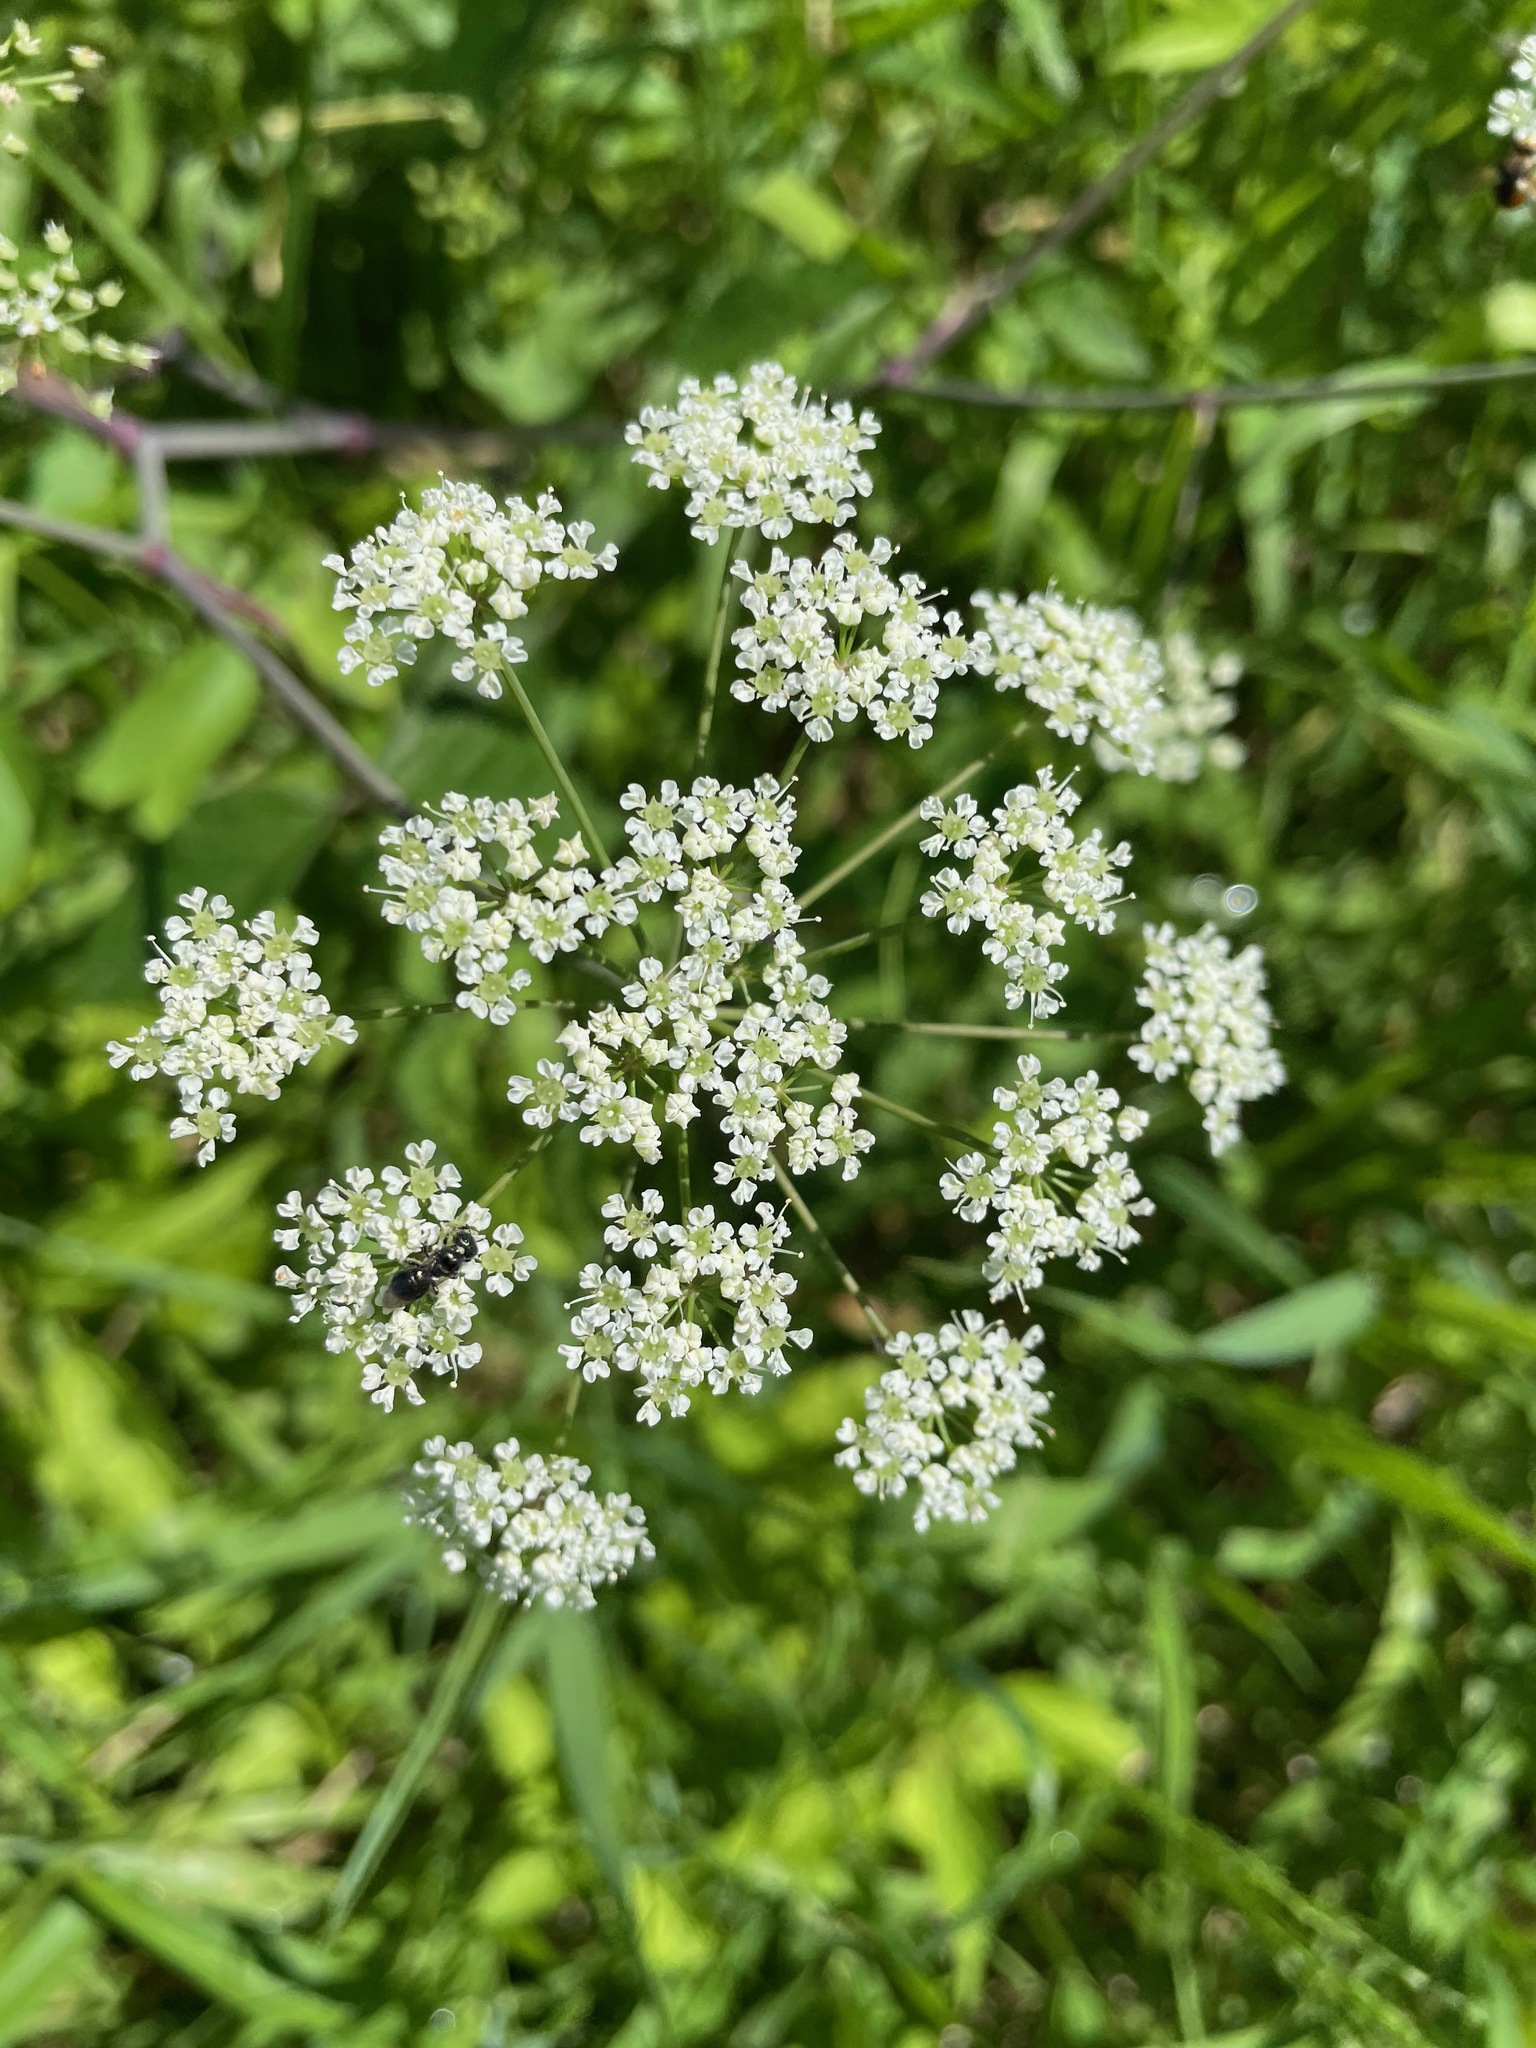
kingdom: Plantae
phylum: Tracheophyta
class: Magnoliopsida
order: Apiales
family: Apiaceae
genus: Cicuta
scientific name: Cicuta maculata
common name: Spotted cowbane
